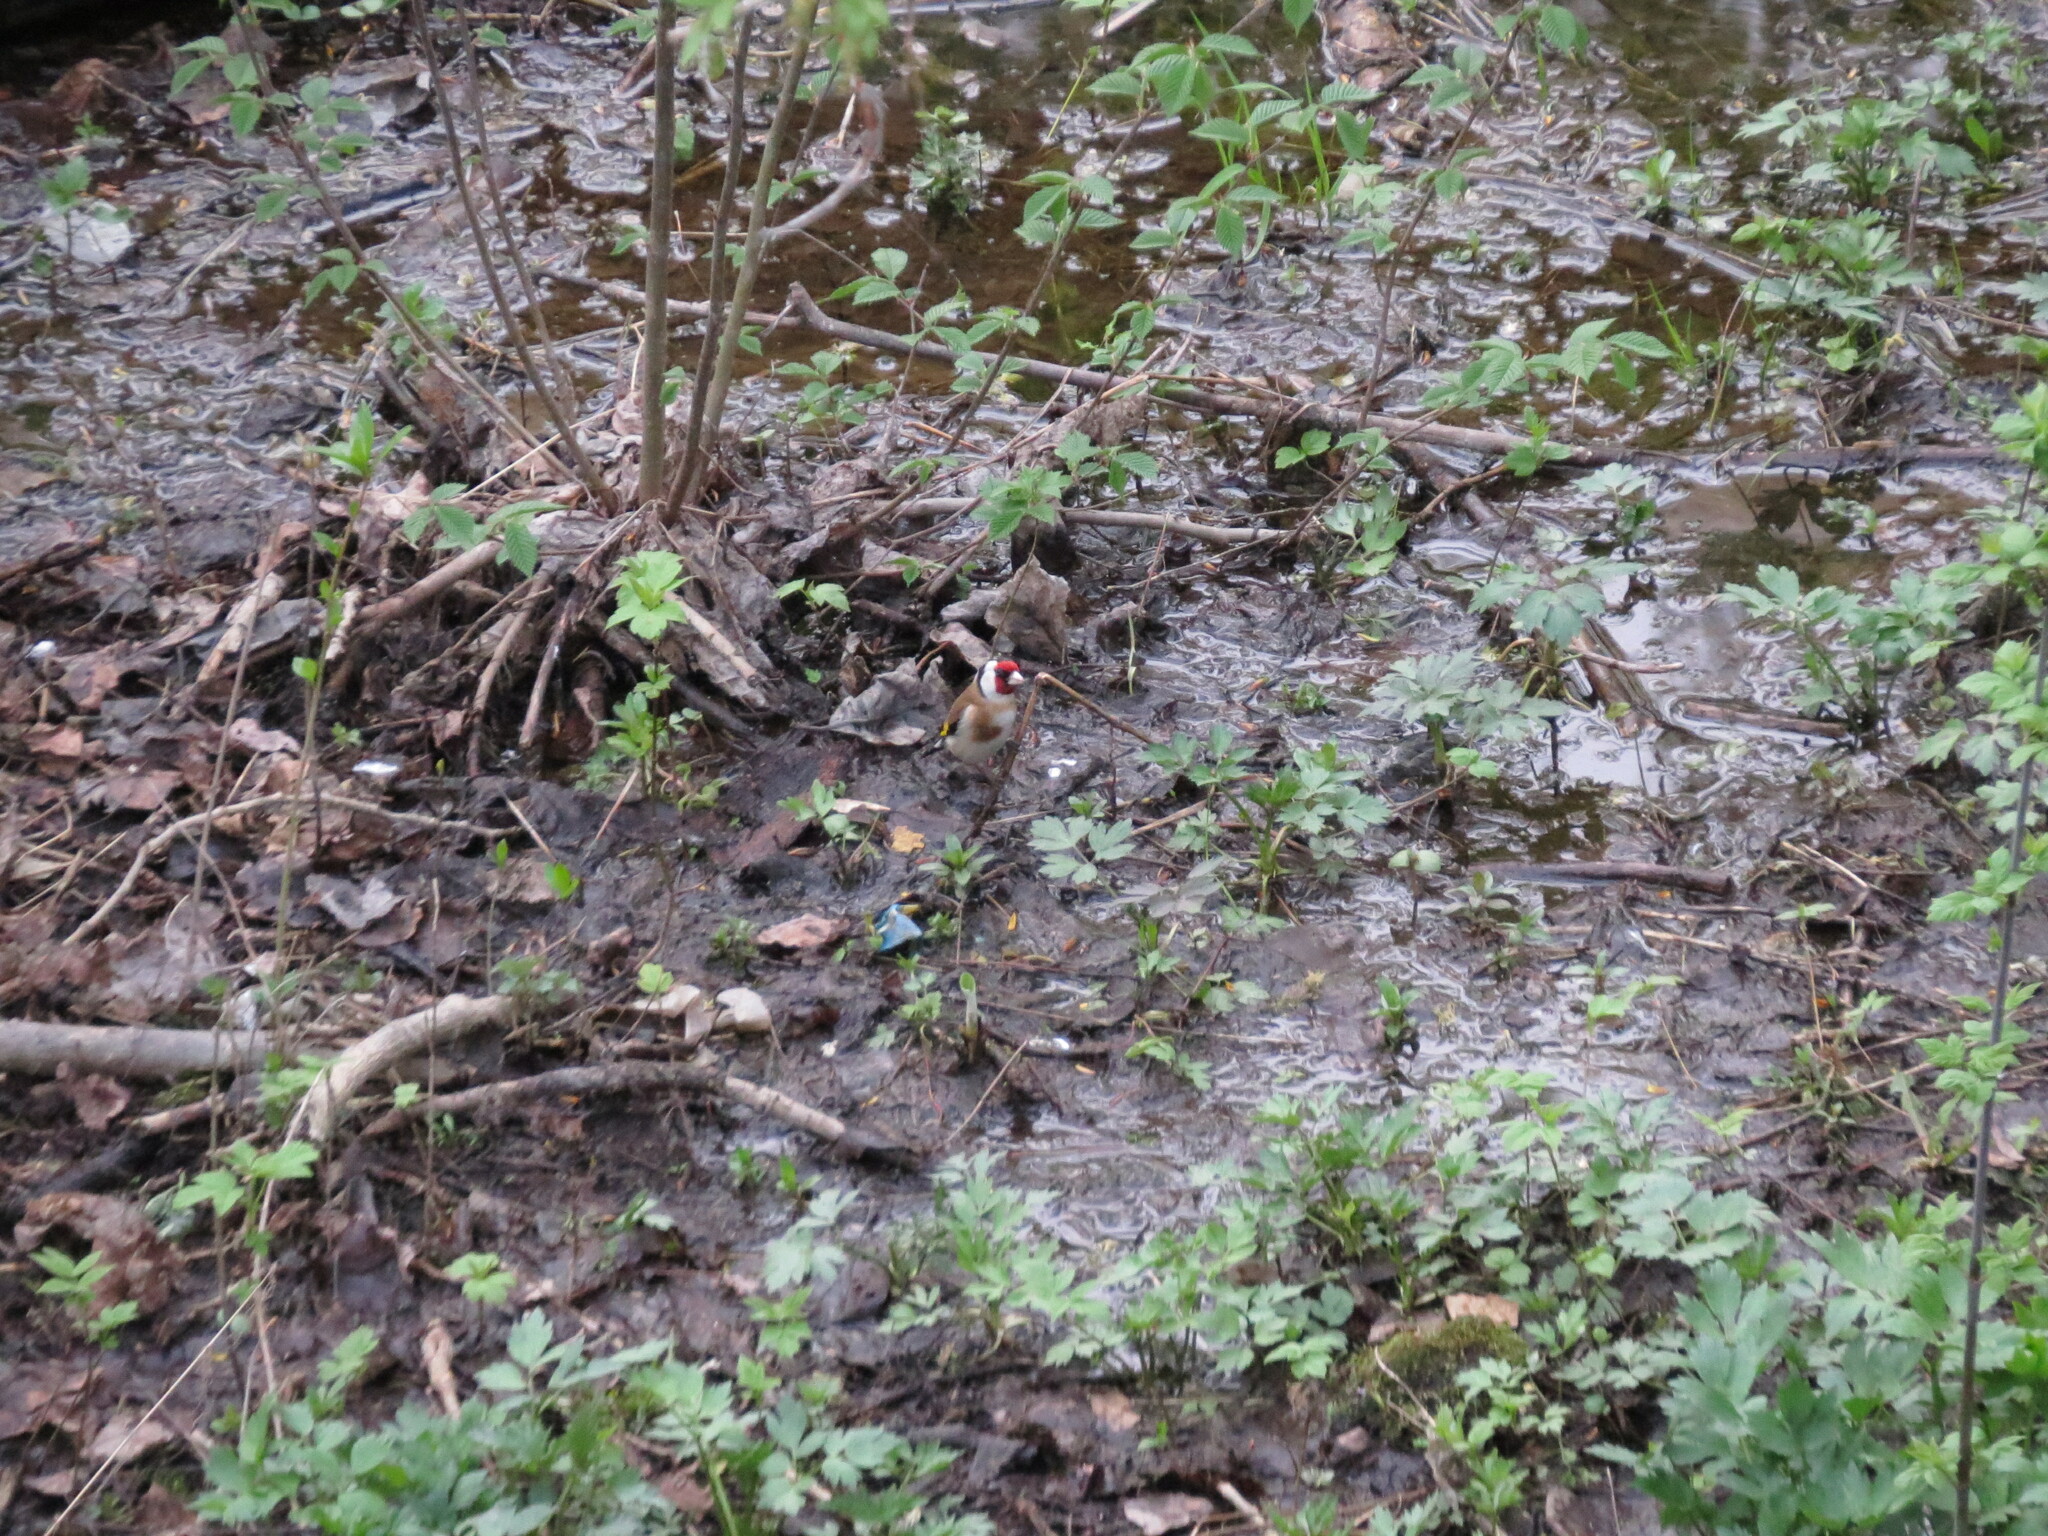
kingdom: Animalia
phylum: Chordata
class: Aves
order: Passeriformes
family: Fringillidae
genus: Carduelis
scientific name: Carduelis carduelis
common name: European goldfinch
